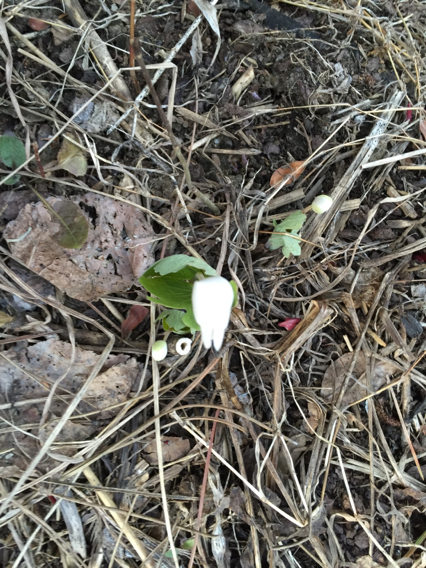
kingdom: Plantae
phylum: Tracheophyta
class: Magnoliopsida
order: Ranunculales
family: Papaveraceae
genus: Sanguinaria
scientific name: Sanguinaria canadensis
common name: Bloodroot
